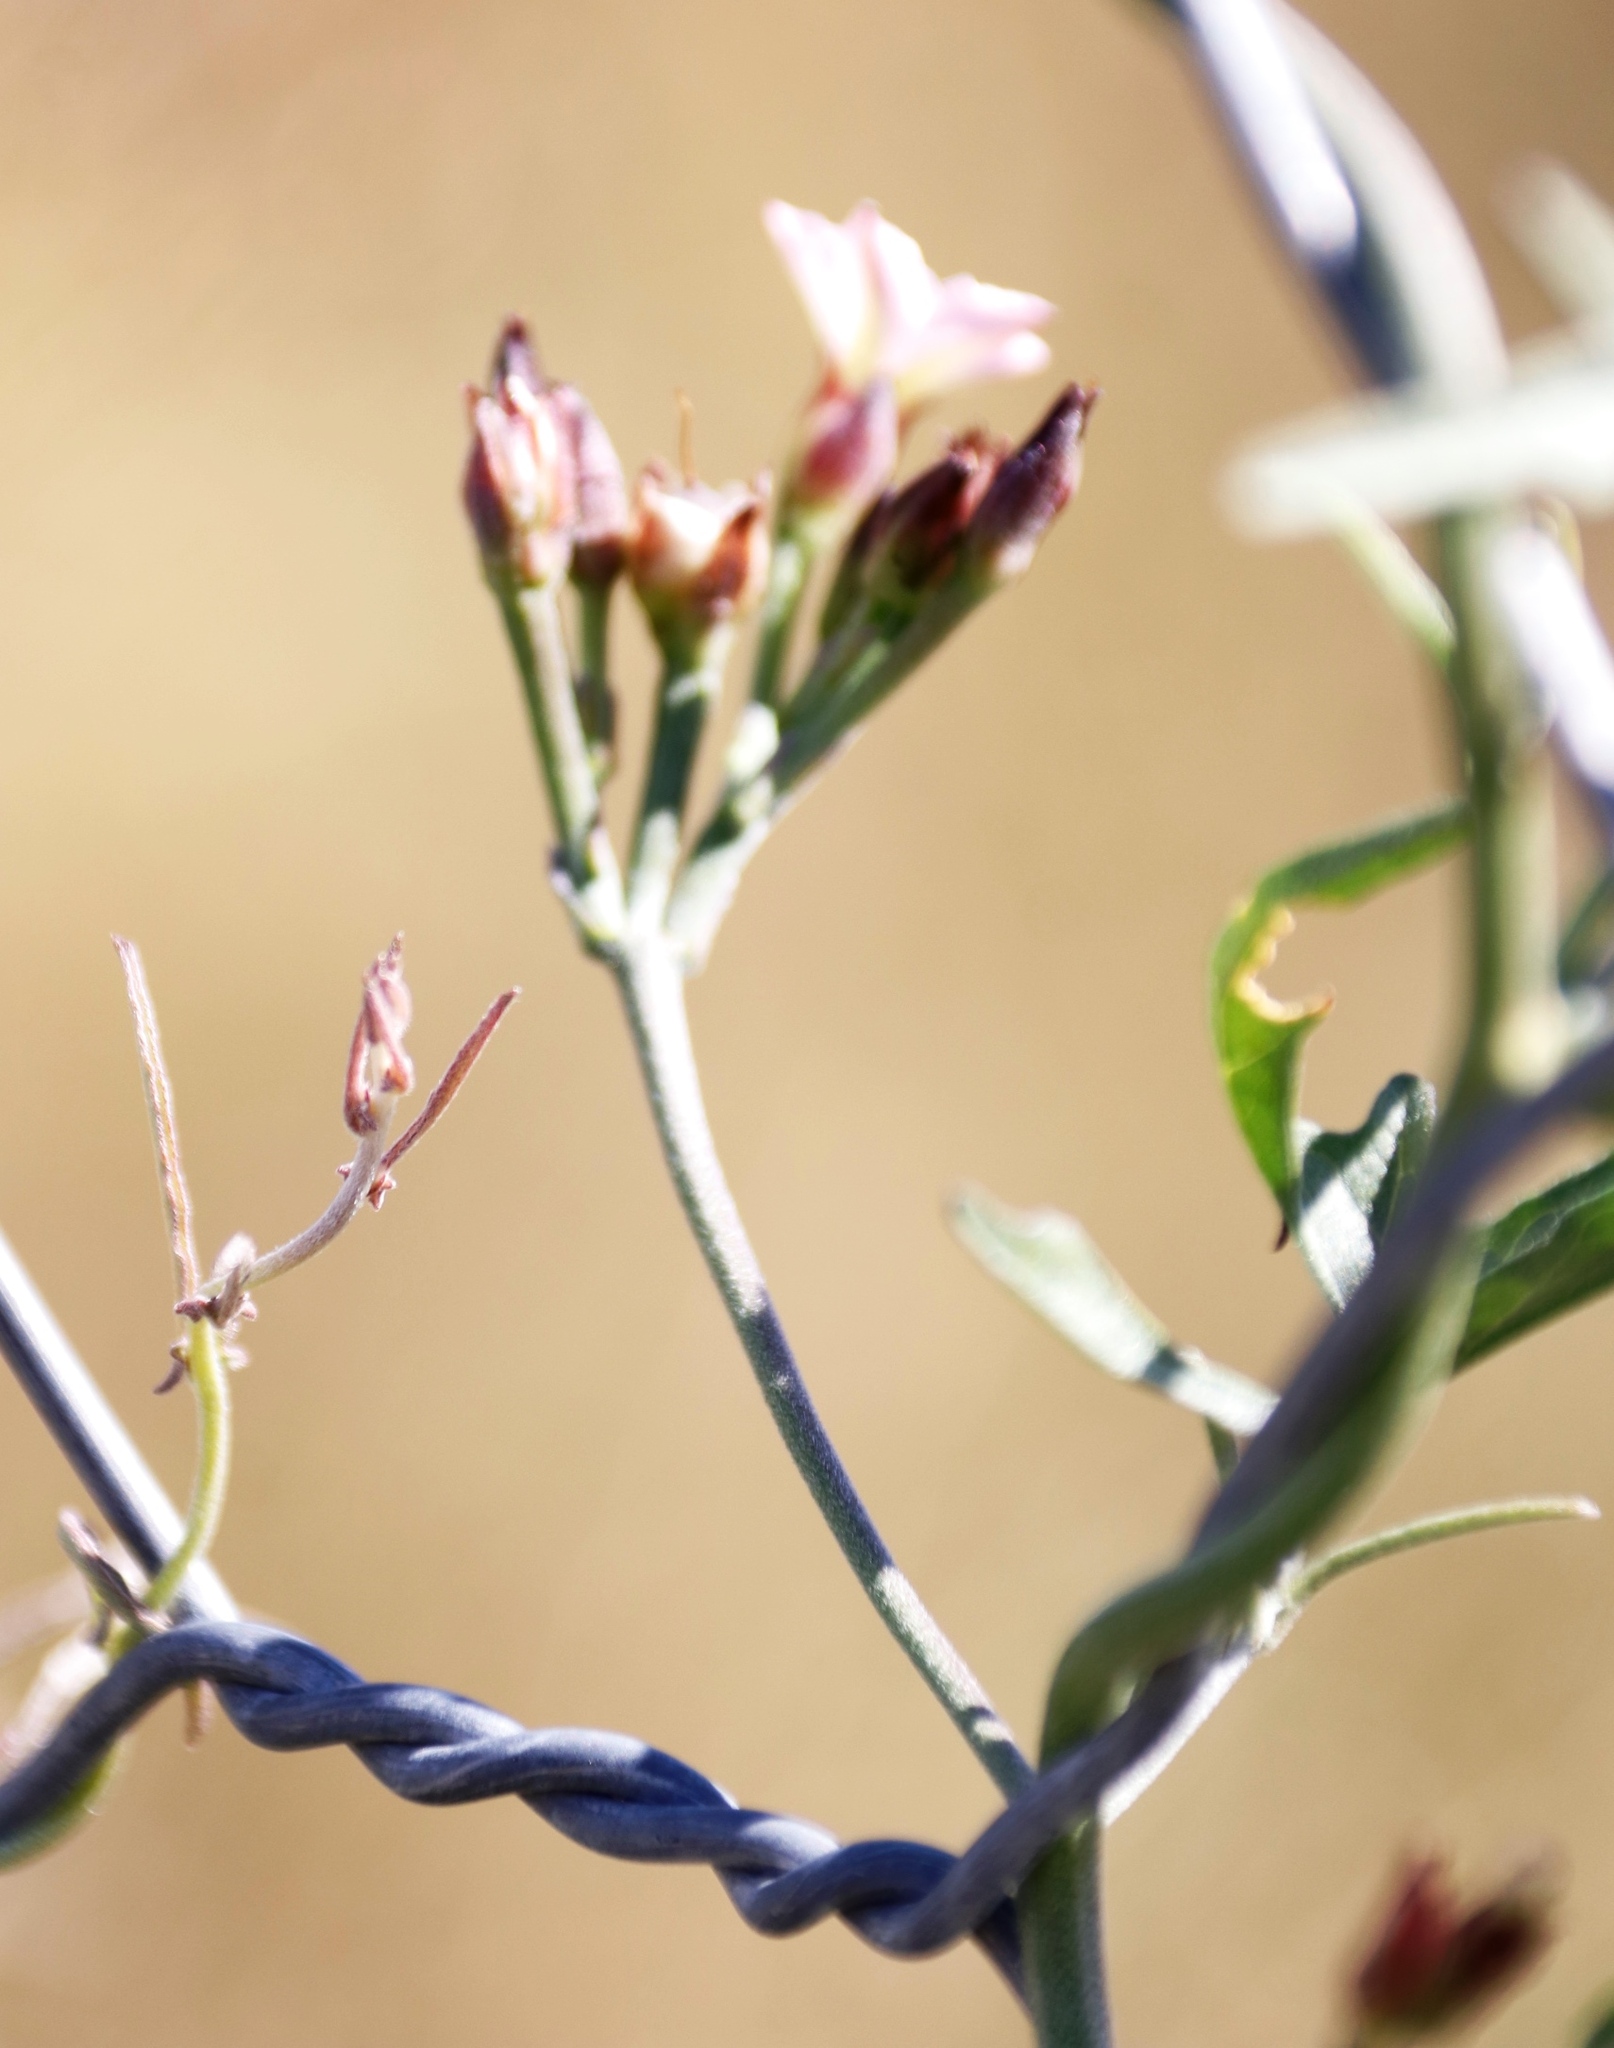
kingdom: Plantae
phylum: Tracheophyta
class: Magnoliopsida
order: Solanales
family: Convolvulaceae
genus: Convolvulus
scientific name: Convolvulus sagittatus
